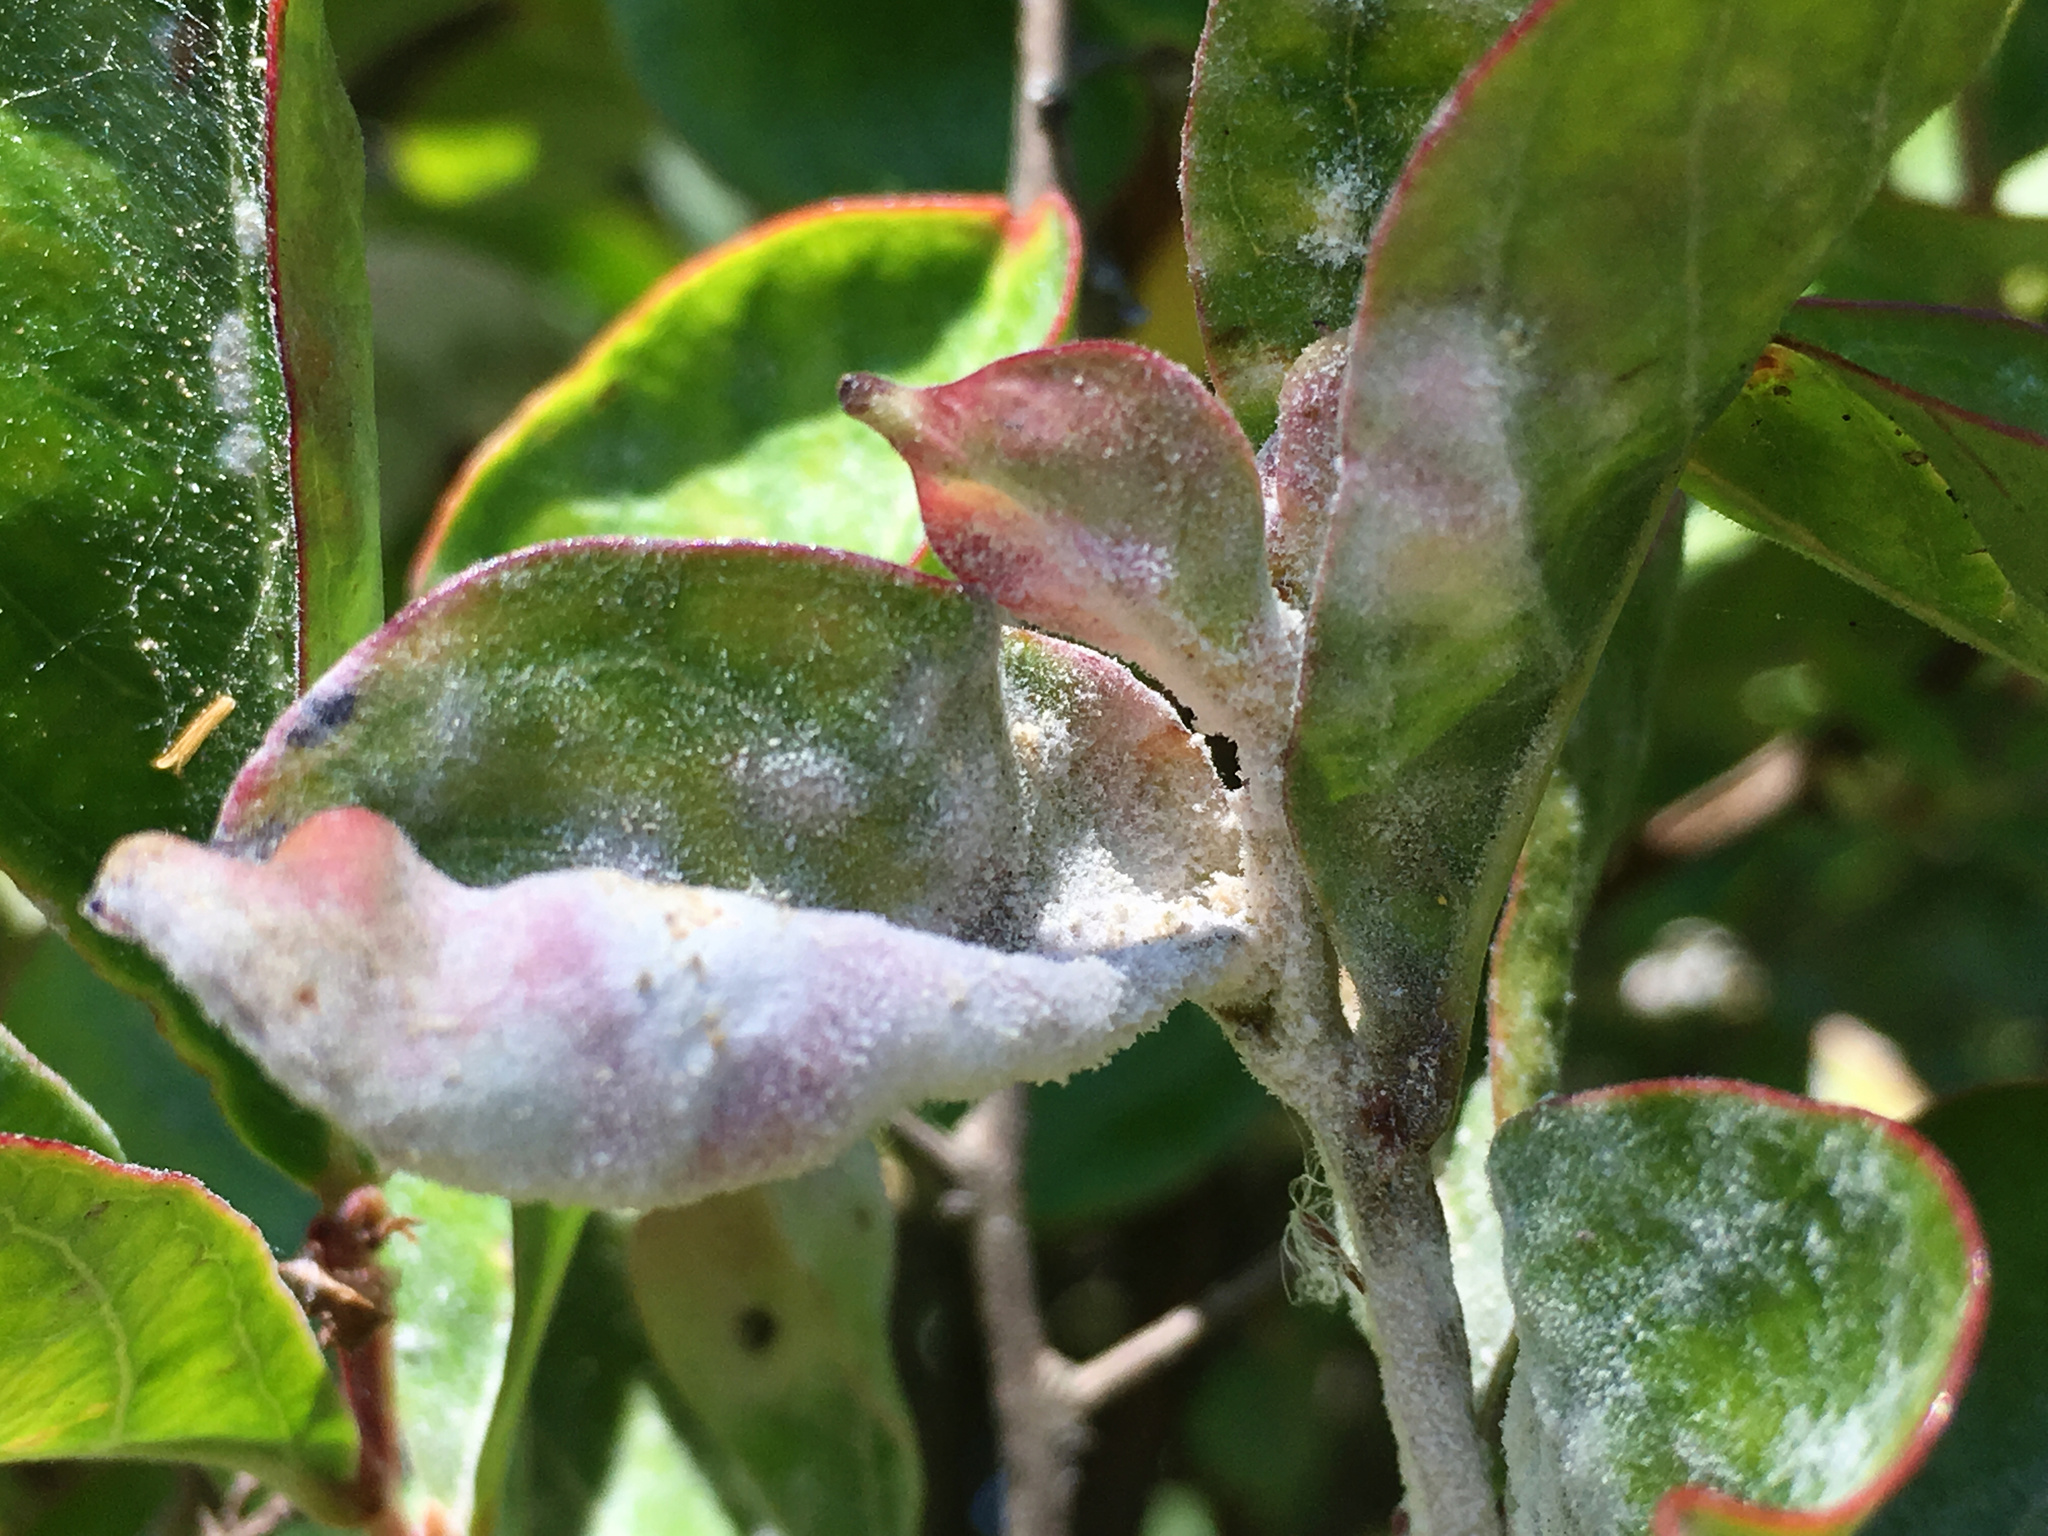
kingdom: Fungi
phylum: Ascomycota
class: Leotiomycetes
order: Helotiales
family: Erysiphaceae
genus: Erysiphe
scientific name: Erysiphe australiana
